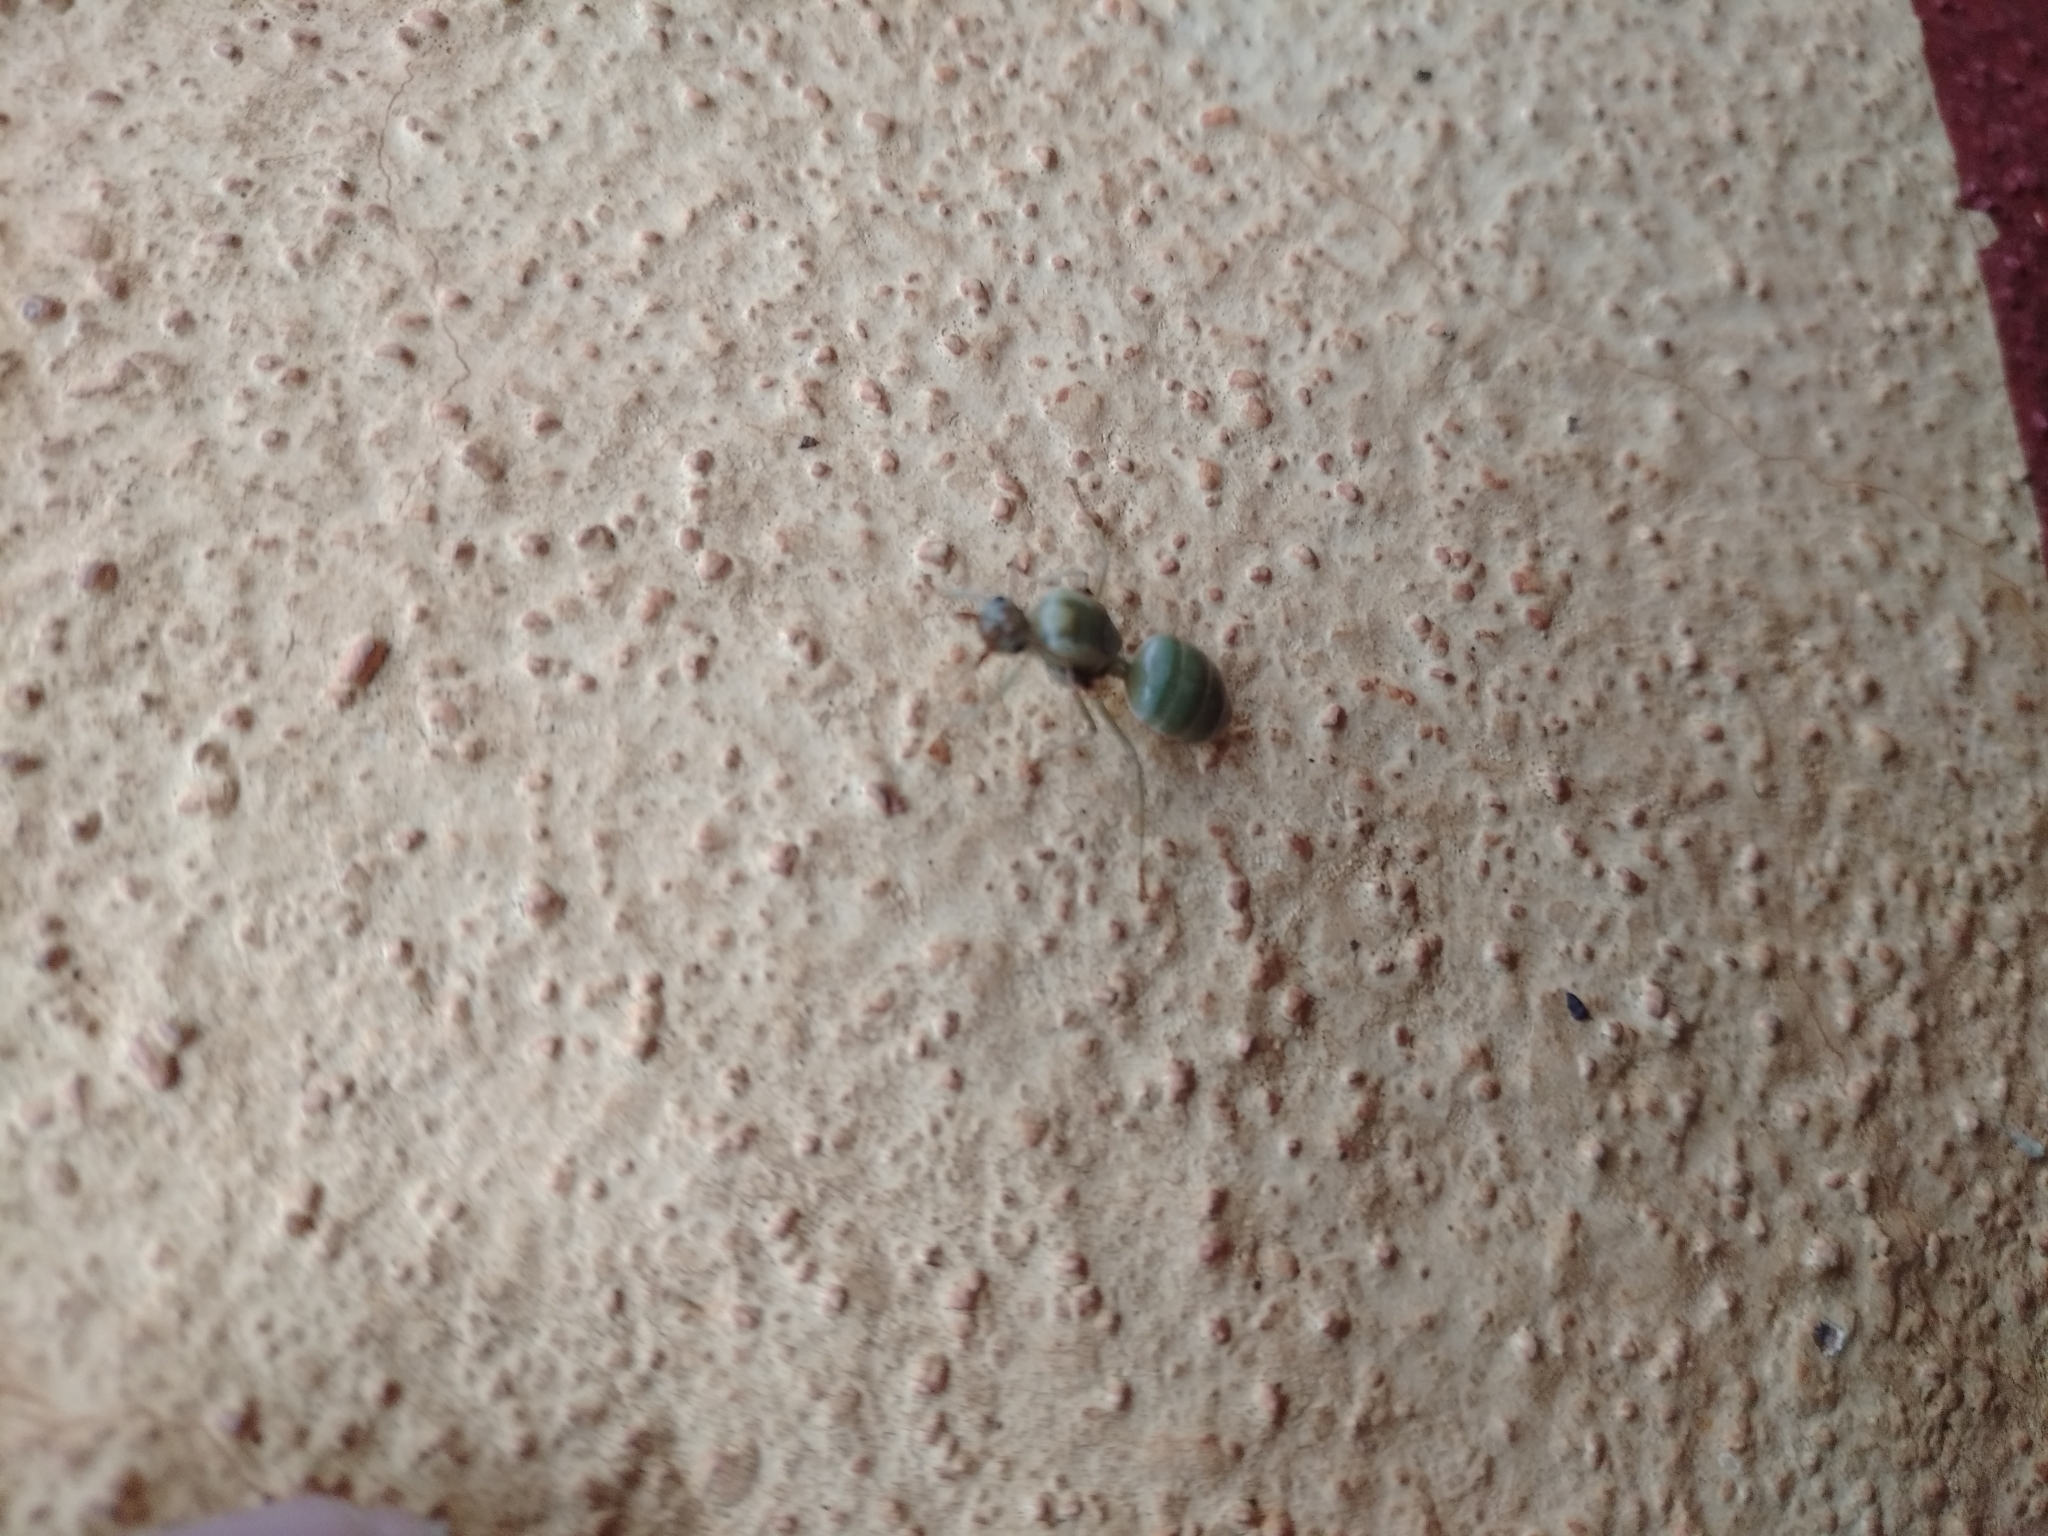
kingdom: Animalia
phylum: Arthropoda
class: Insecta
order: Hymenoptera
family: Formicidae
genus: Oecophylla
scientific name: Oecophylla smaragdina
